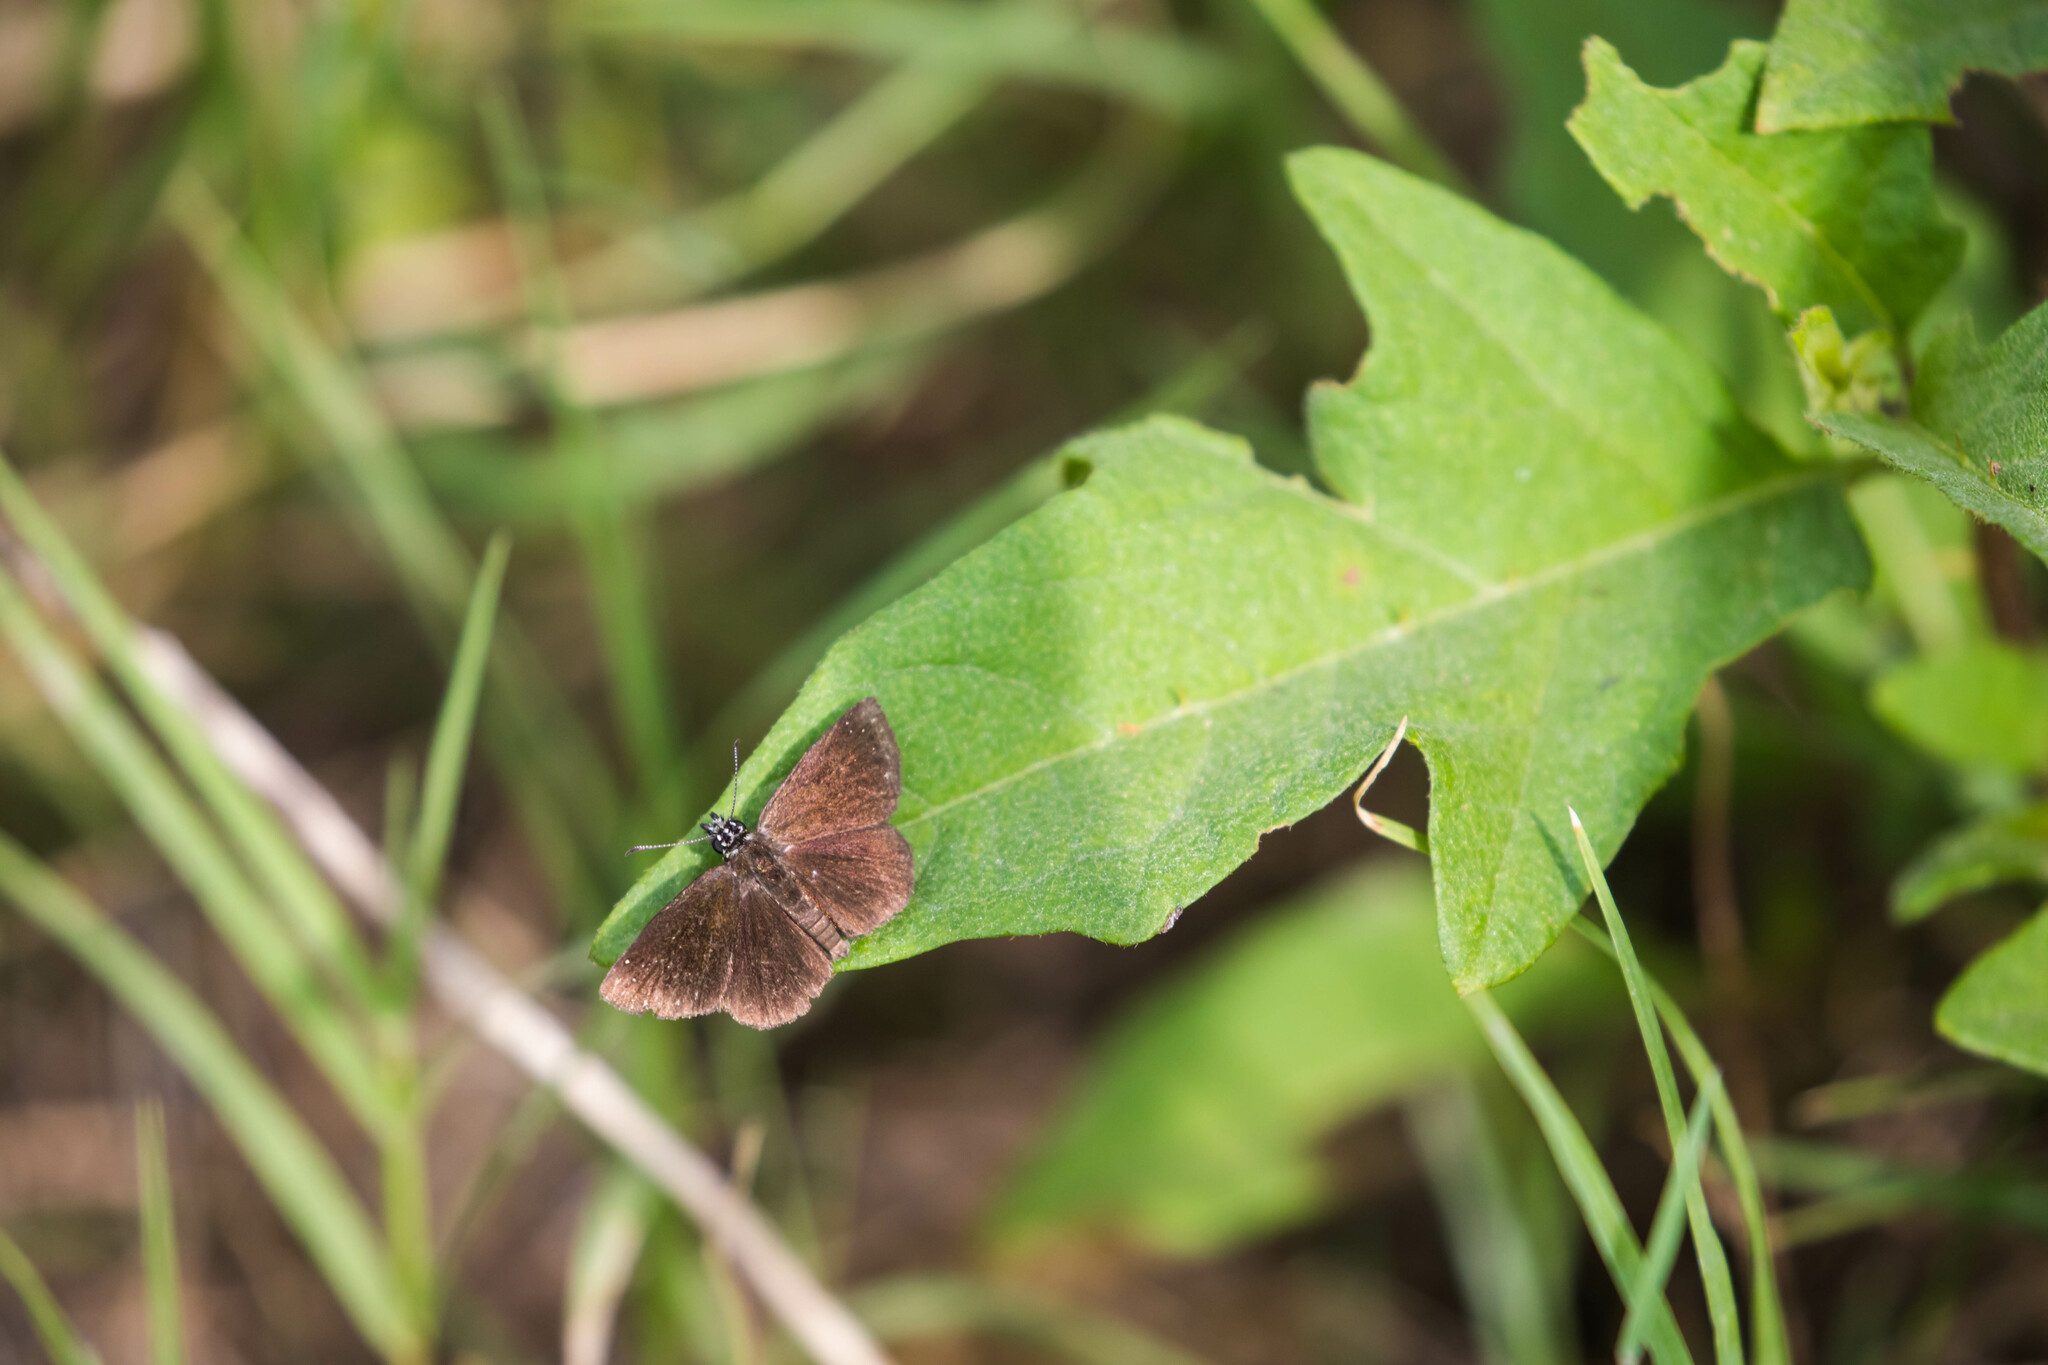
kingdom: Animalia
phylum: Arthropoda
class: Insecta
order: Lepidoptera
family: Hesperiidae
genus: Pholisora
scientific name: Pholisora catullus
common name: Common sootywing
